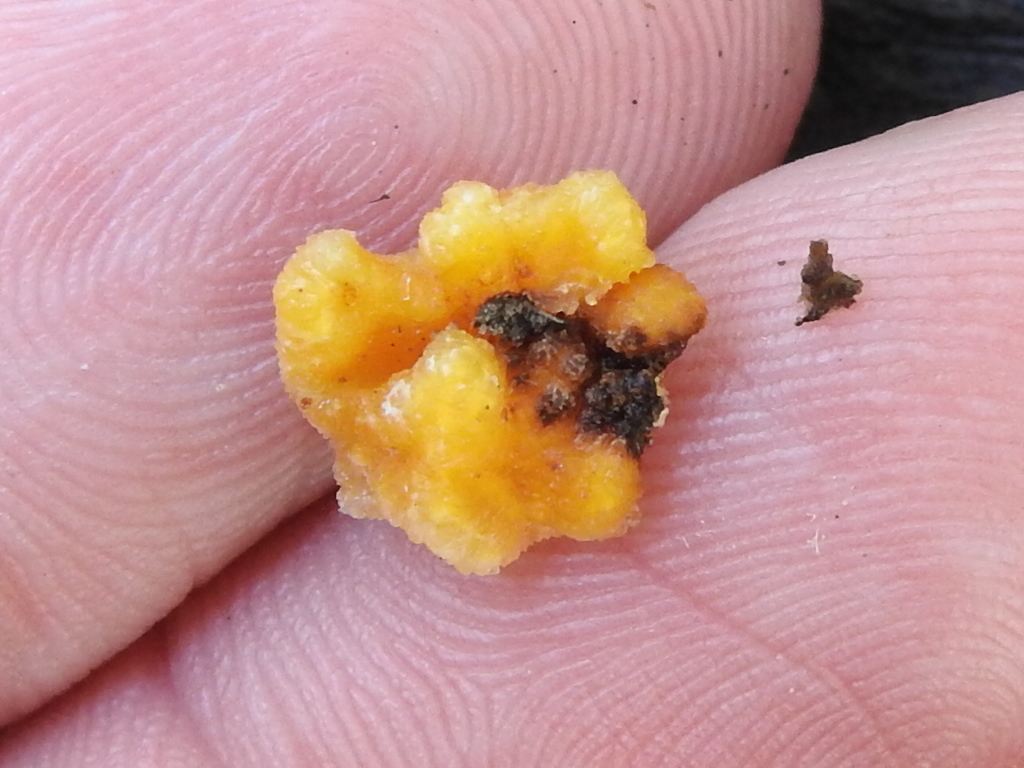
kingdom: Fungi
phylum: Basidiomycota
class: Dacrymycetes
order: Dacrymycetales
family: Dacrymycetaceae
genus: Dacrymyces
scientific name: Dacrymyces stillatus
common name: Common jelly spot
